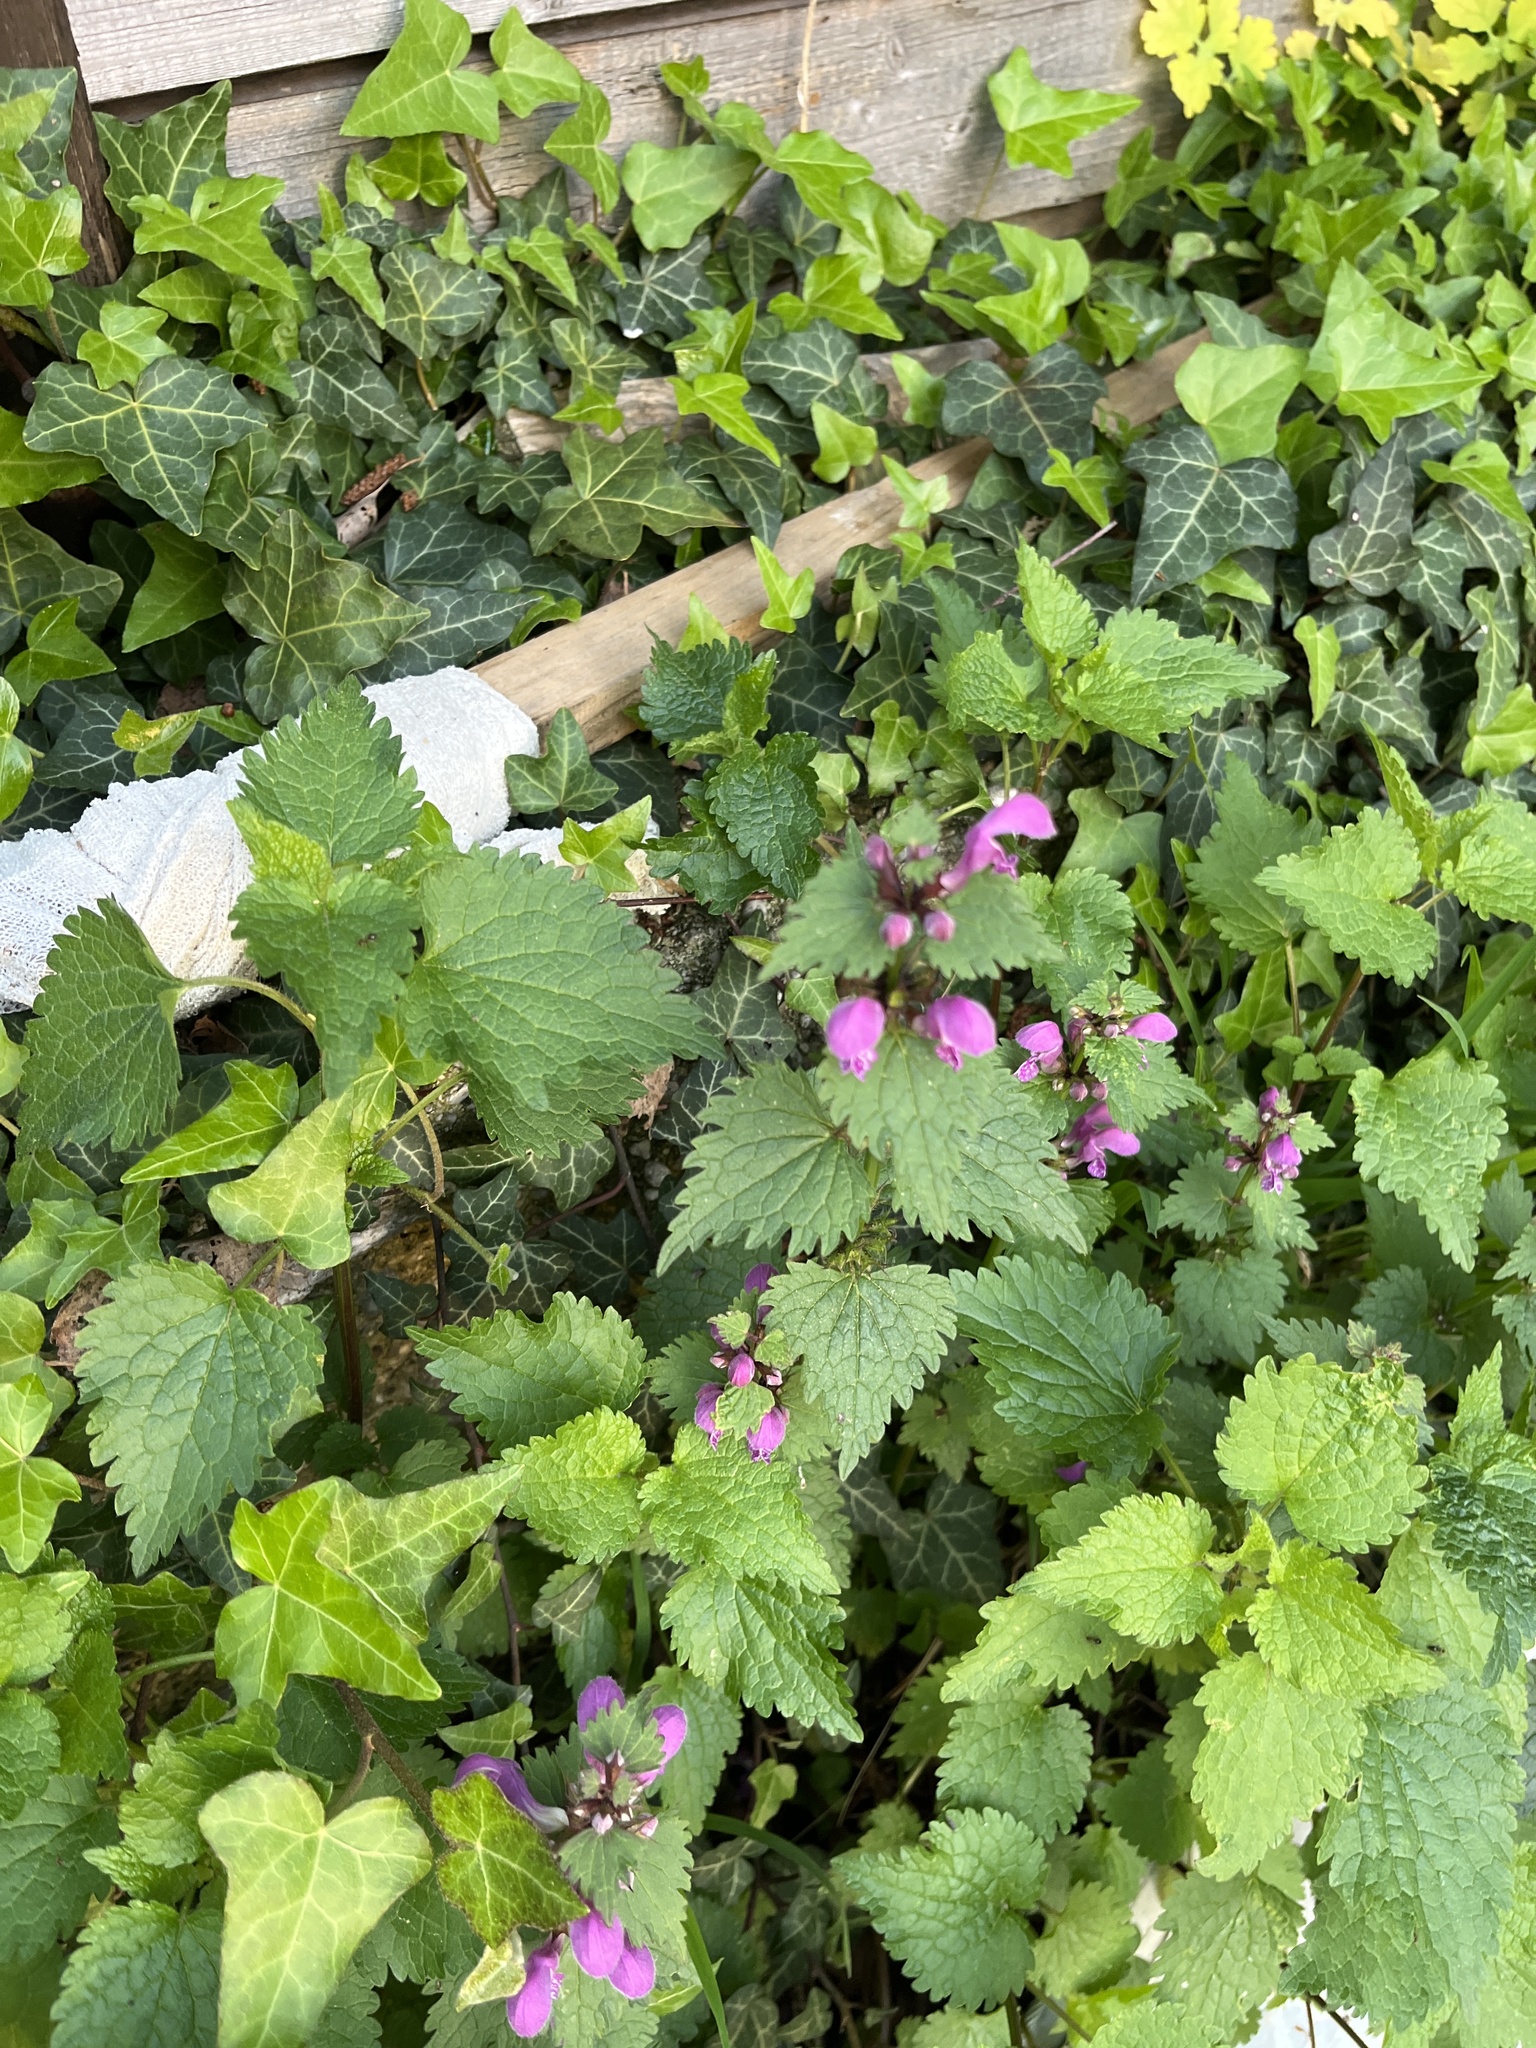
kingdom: Plantae
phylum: Tracheophyta
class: Magnoliopsida
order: Lamiales
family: Lamiaceae
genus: Lamium
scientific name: Lamium maculatum
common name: Spotted dead-nettle
